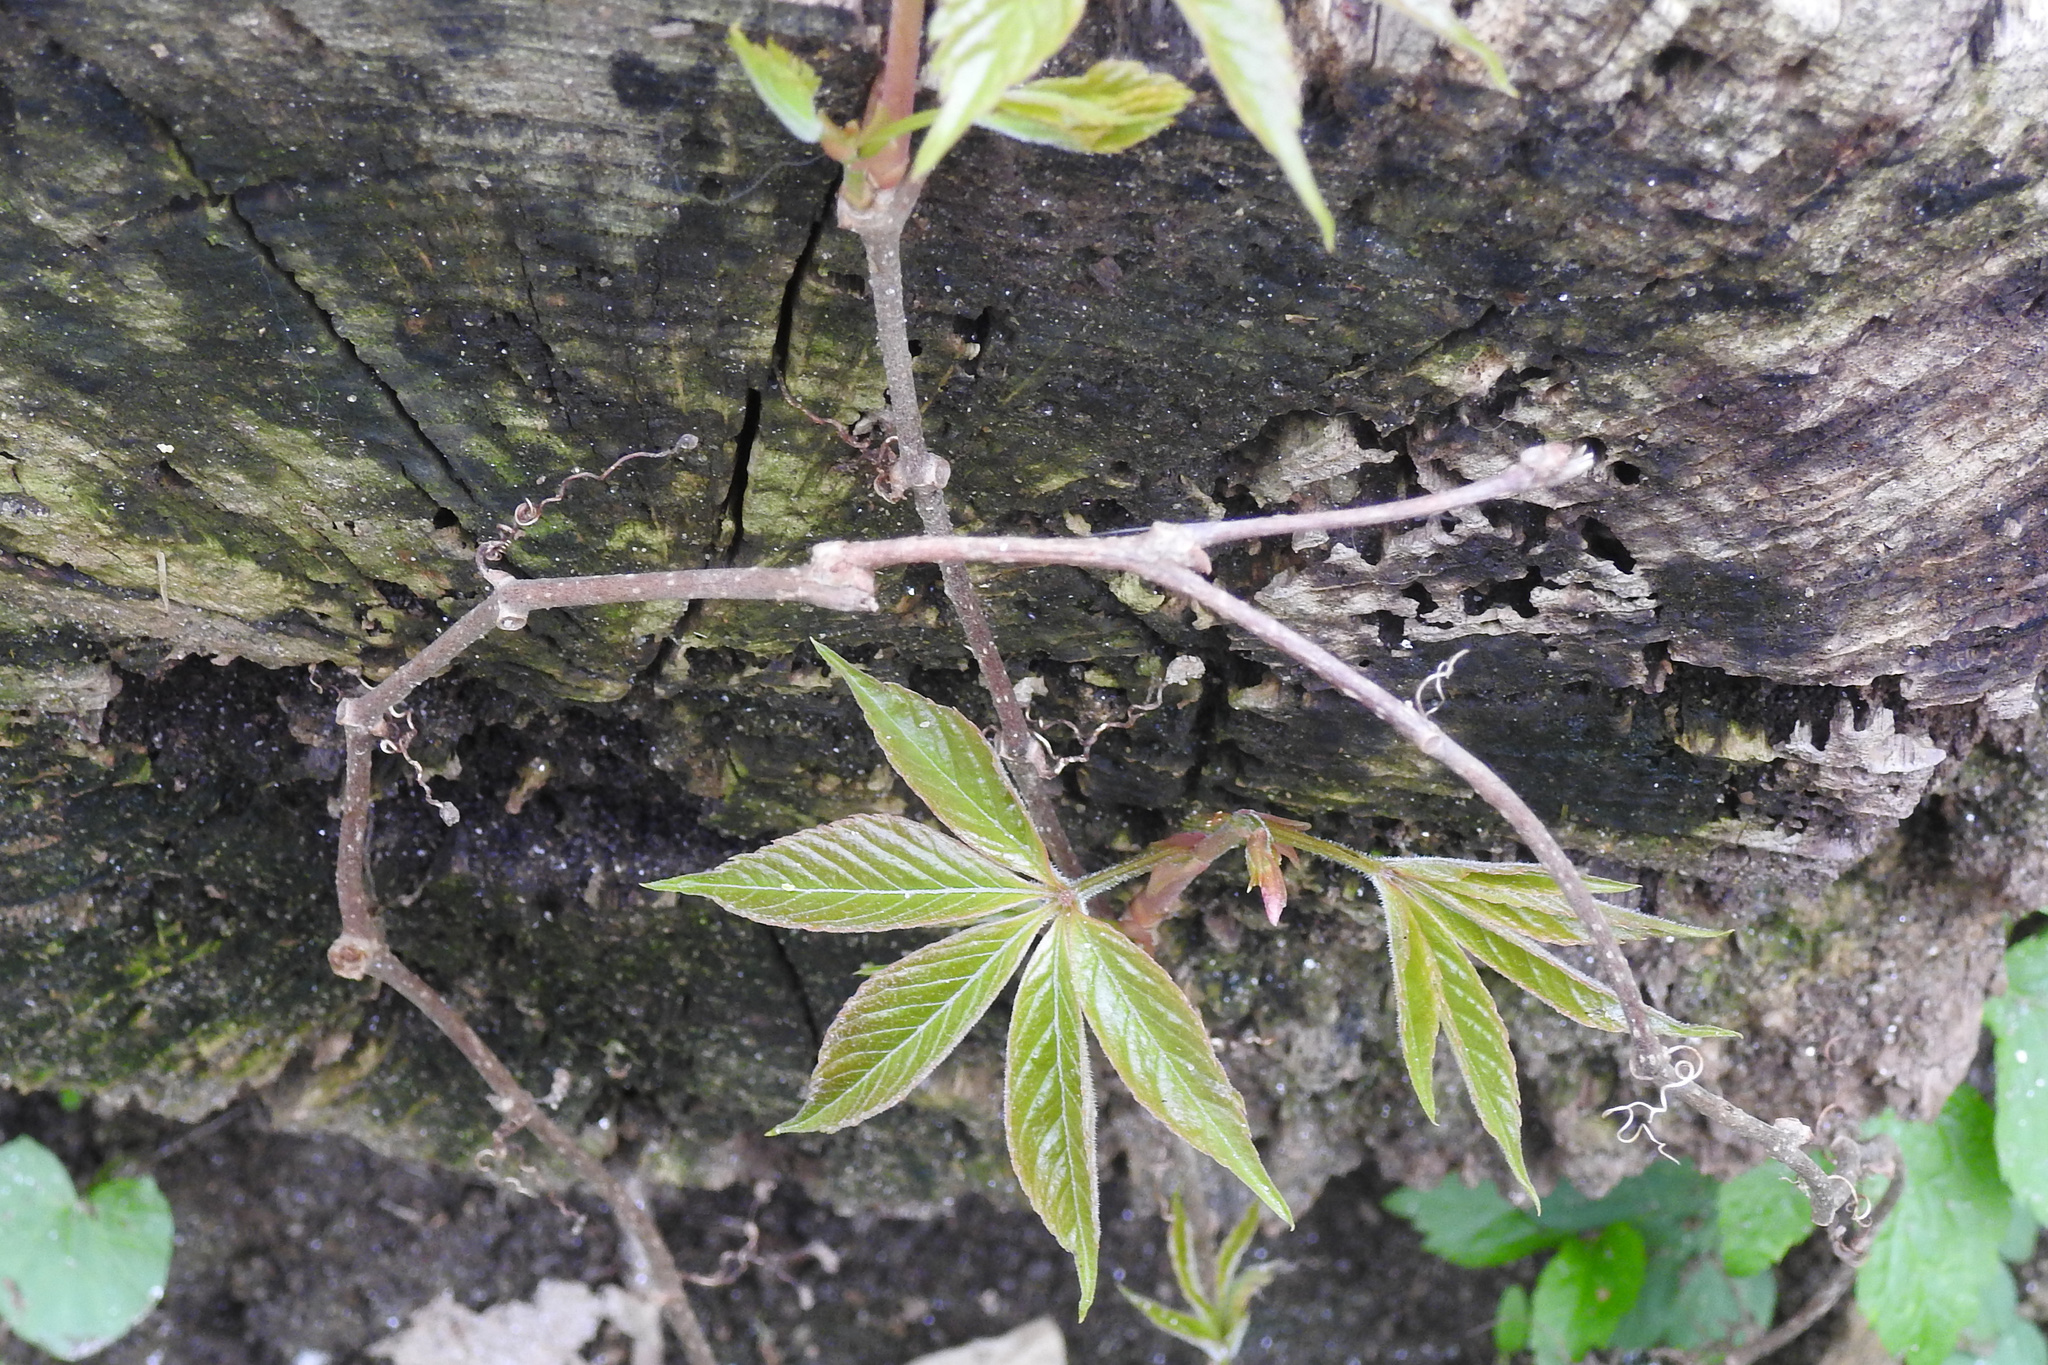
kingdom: Plantae
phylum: Tracheophyta
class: Magnoliopsida
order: Vitales
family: Vitaceae
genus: Parthenocissus
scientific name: Parthenocissus quinquefolia
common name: Virginia-creeper
